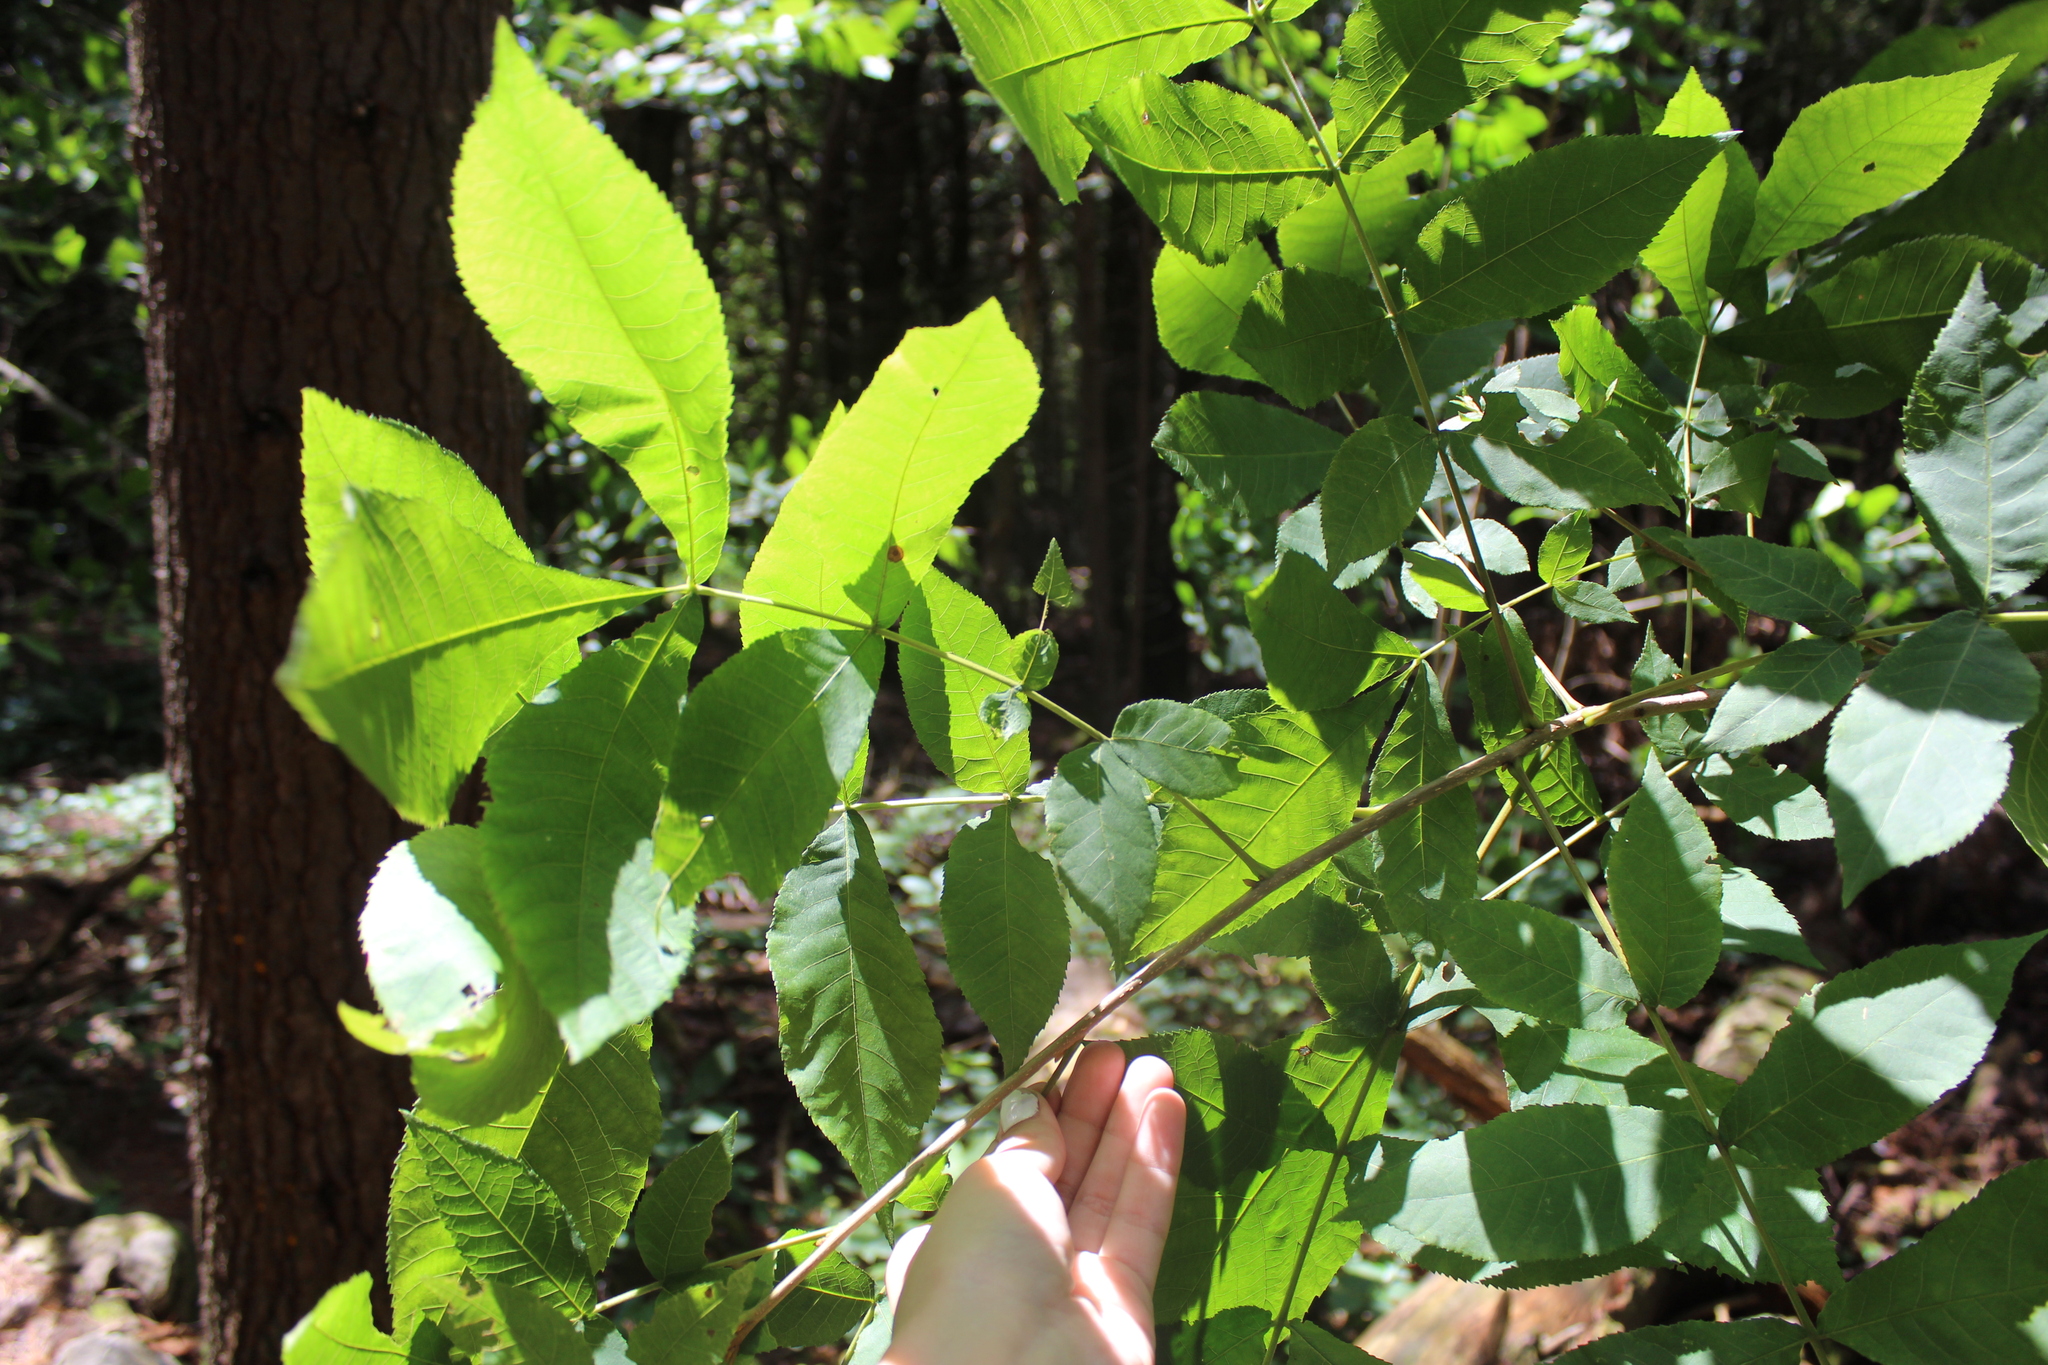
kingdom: Plantae
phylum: Tracheophyta
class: Magnoliopsida
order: Fagales
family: Juglandaceae
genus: Carya
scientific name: Carya cordiformis
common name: Bitternut hickory
